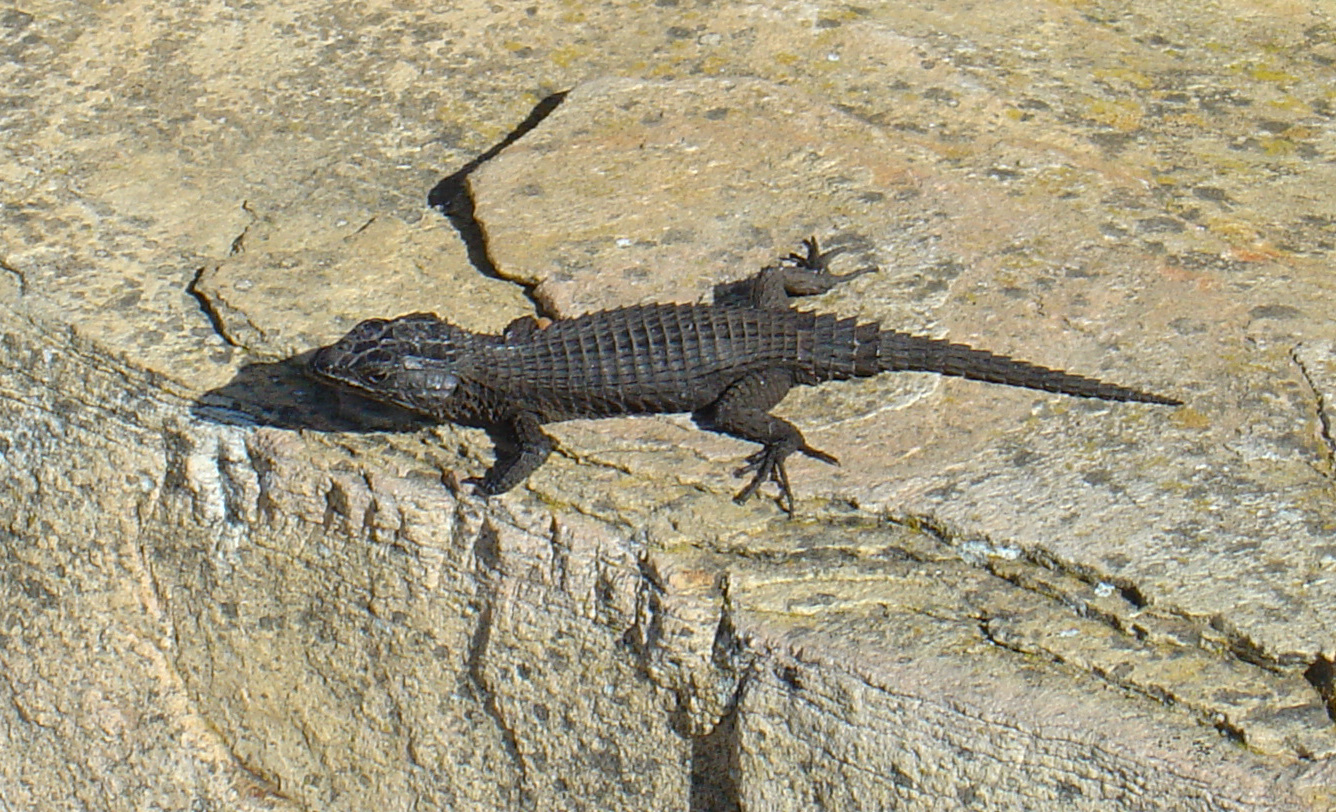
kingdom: Animalia
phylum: Chordata
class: Squamata
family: Cordylidae
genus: Cordylus
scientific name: Cordylus niger
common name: Black girdled lizard
